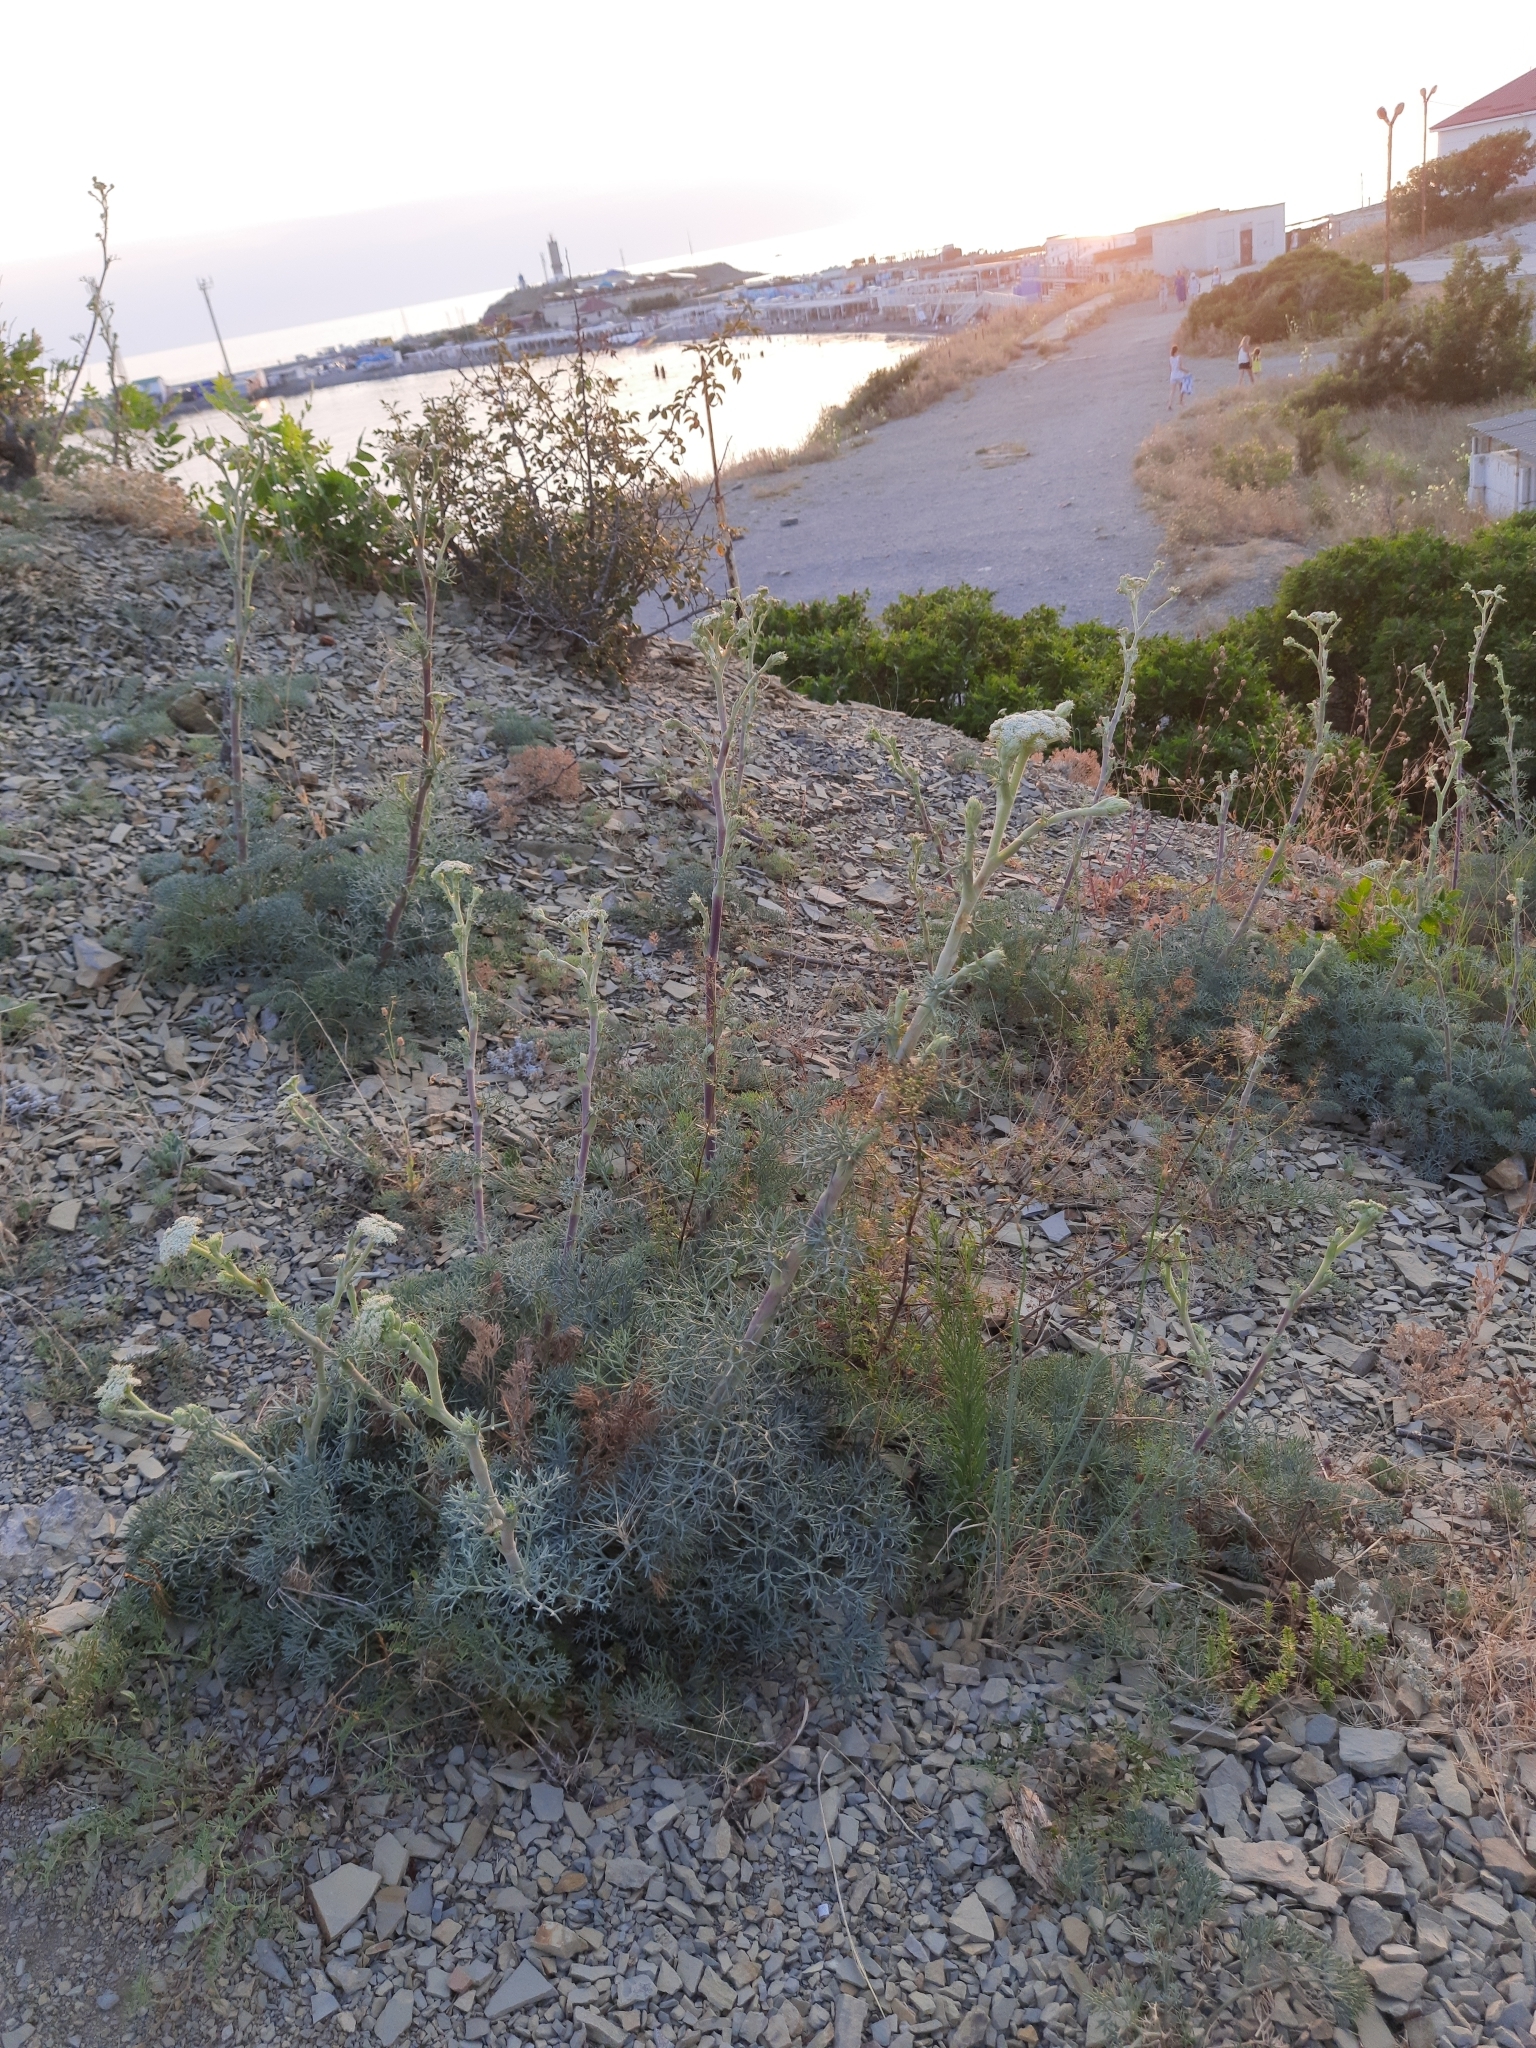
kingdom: Plantae
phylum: Tracheophyta
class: Magnoliopsida
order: Apiales
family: Apiaceae
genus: Seseli
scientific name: Seseli ponticum
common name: Pontic seseli
